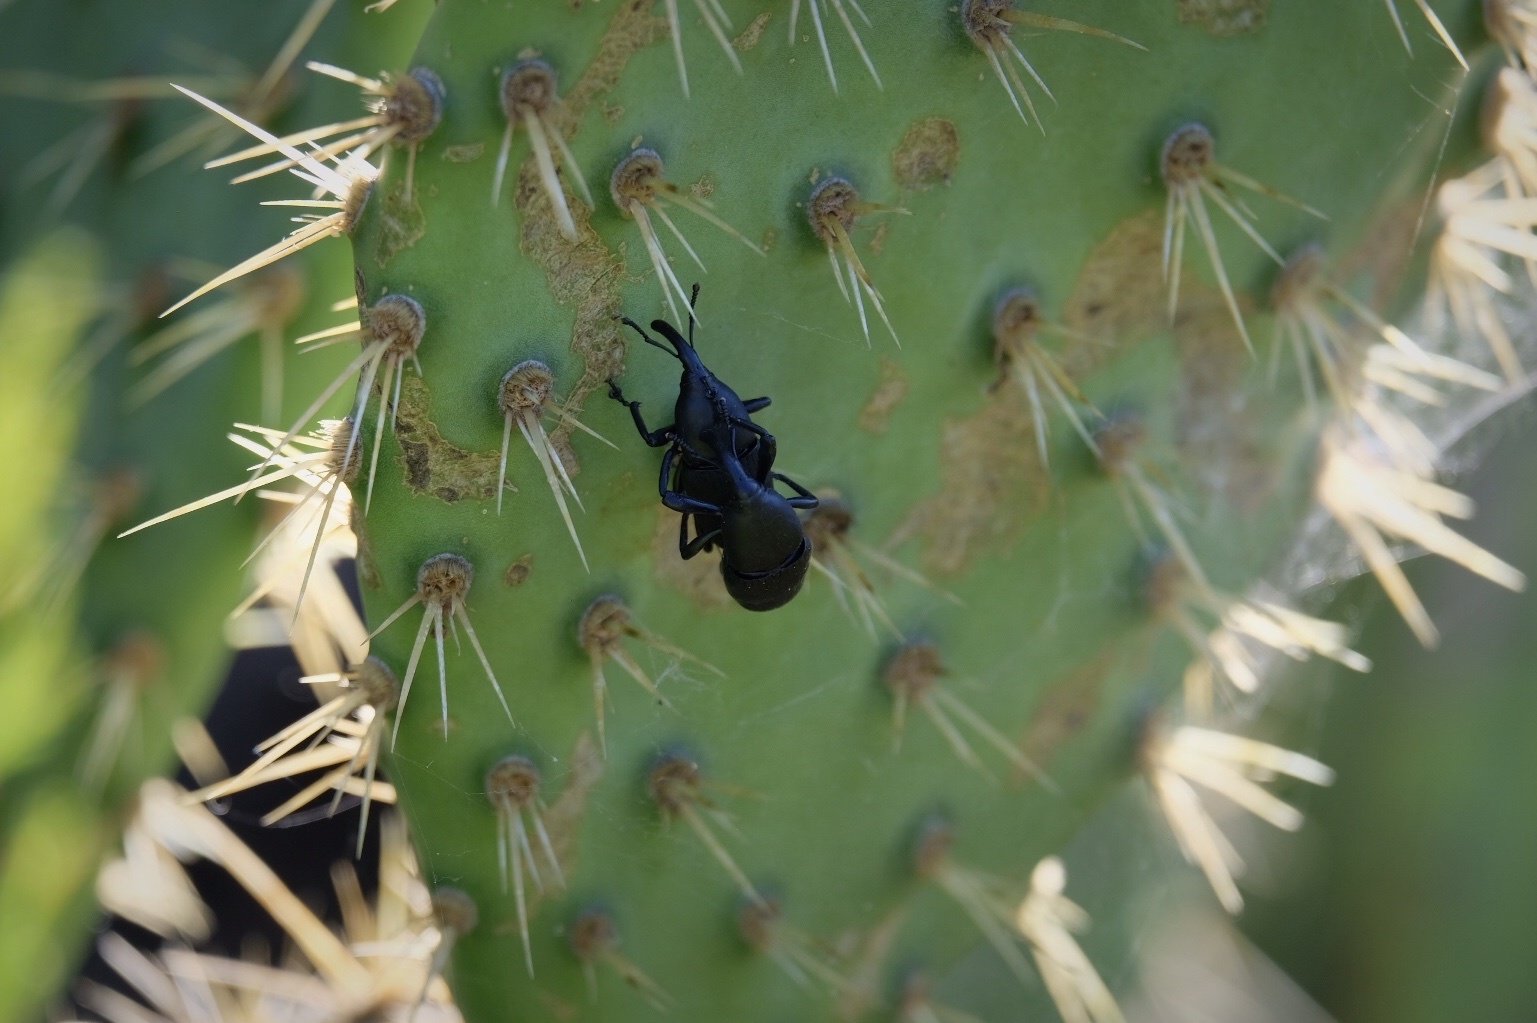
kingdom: Animalia
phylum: Arthropoda
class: Insecta
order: Coleoptera
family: Dryophthoridae
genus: Cactophagus
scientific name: Cactophagus spinolae
